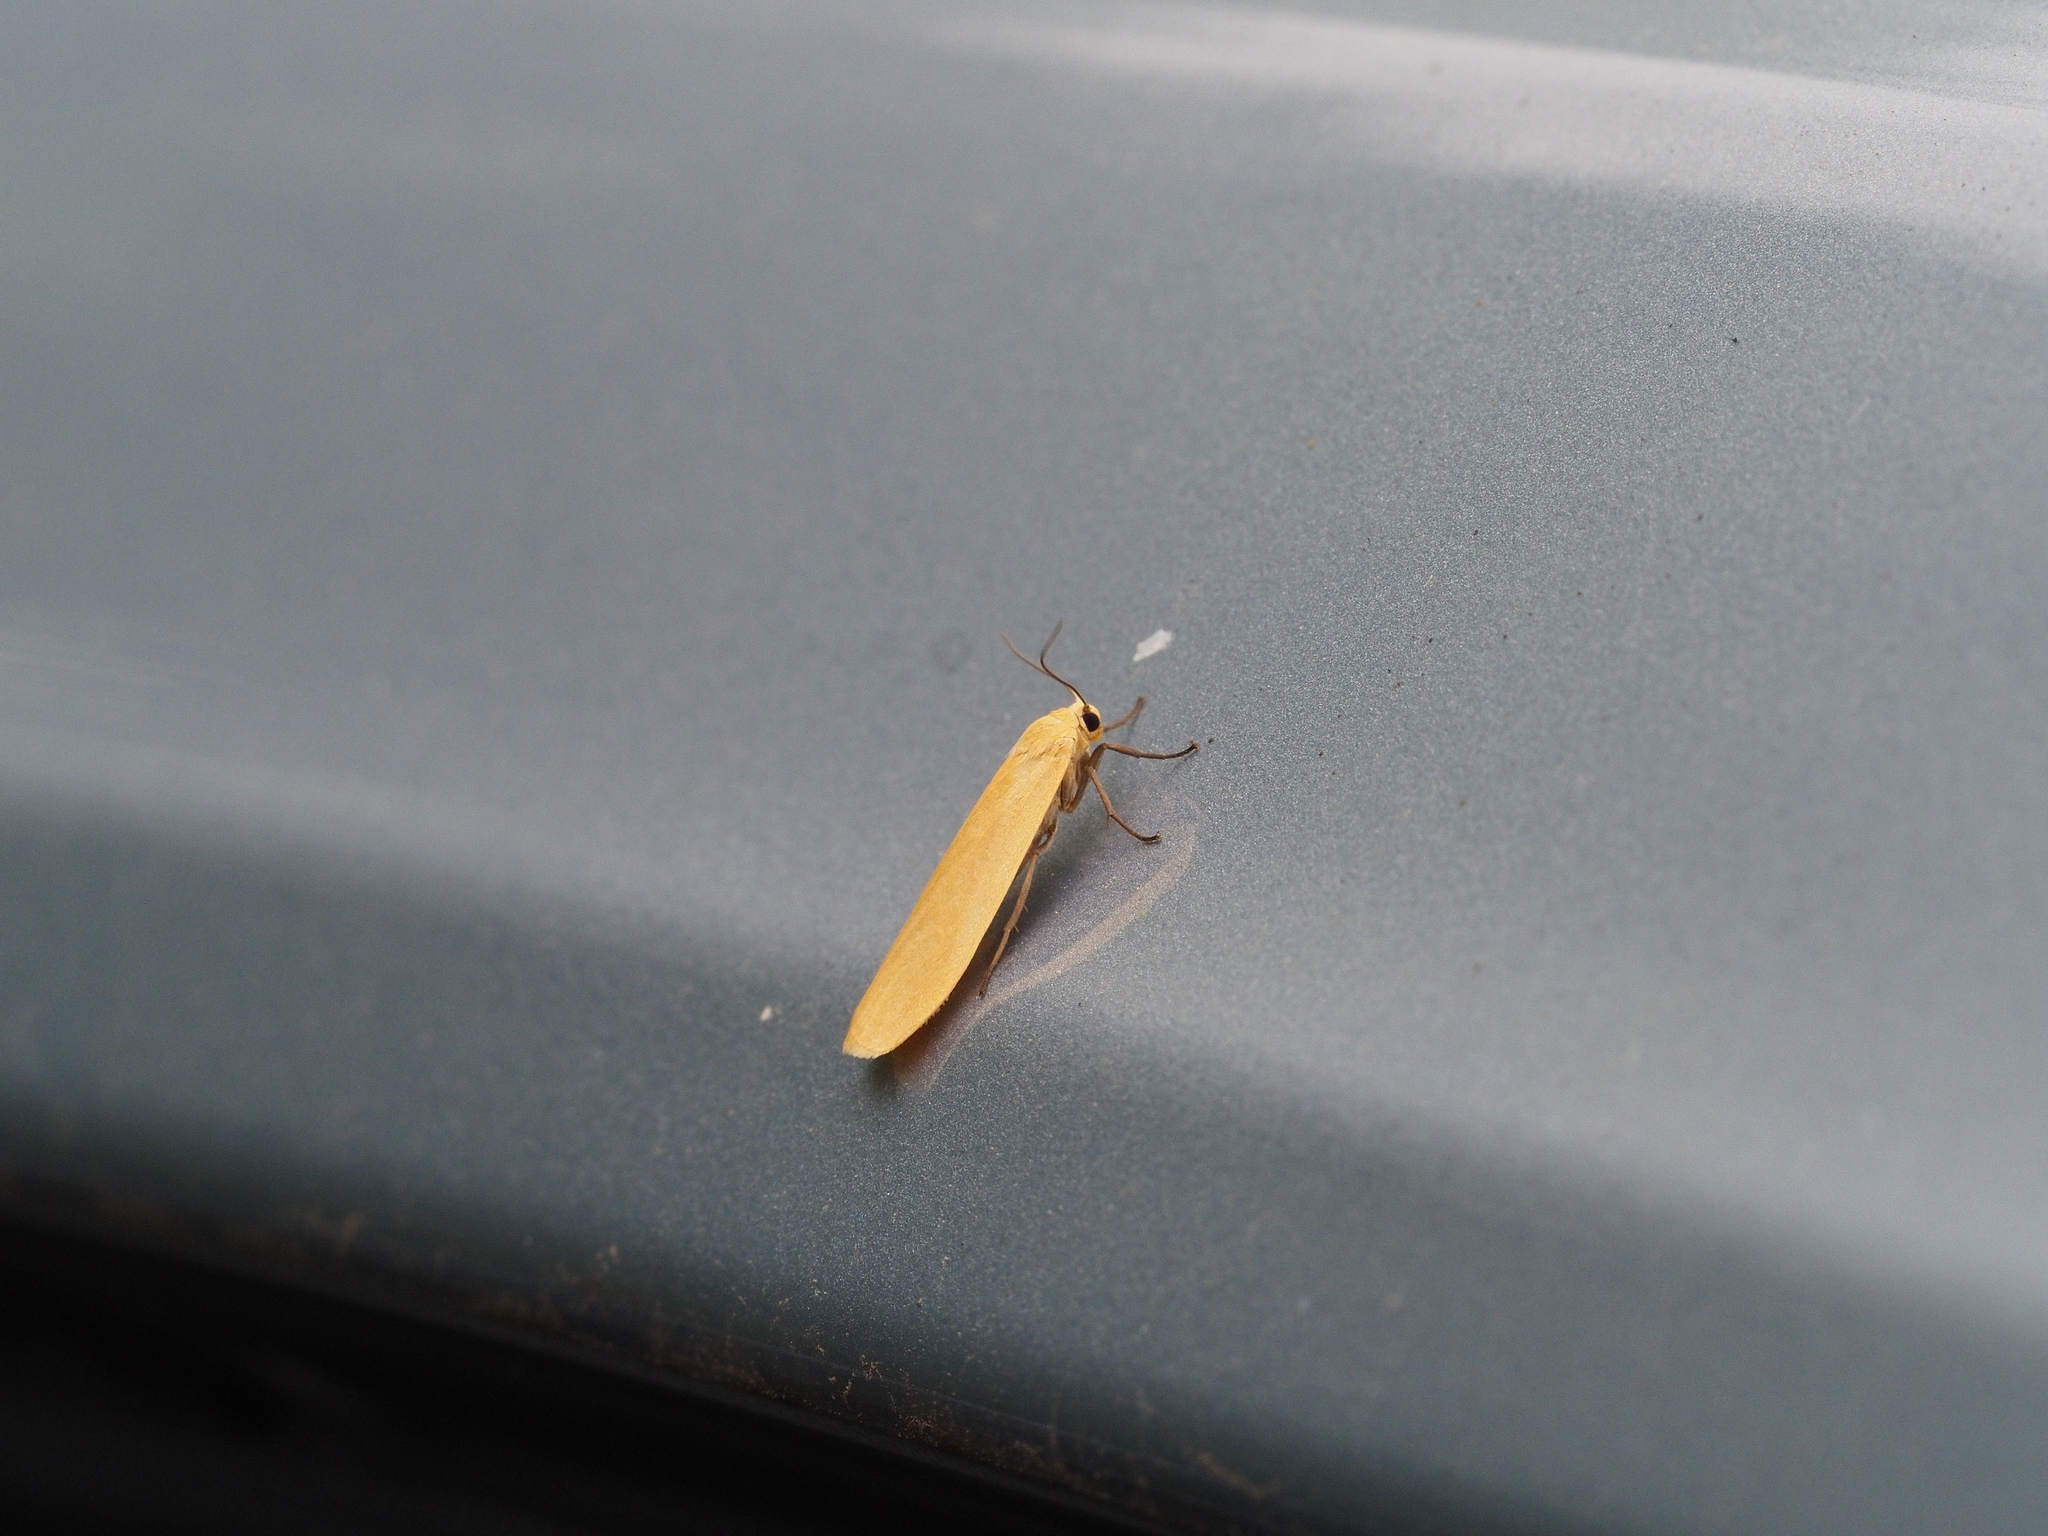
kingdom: Animalia
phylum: Arthropoda
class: Insecta
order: Lepidoptera
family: Erebidae
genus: Wittia
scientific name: Wittia sororcula
